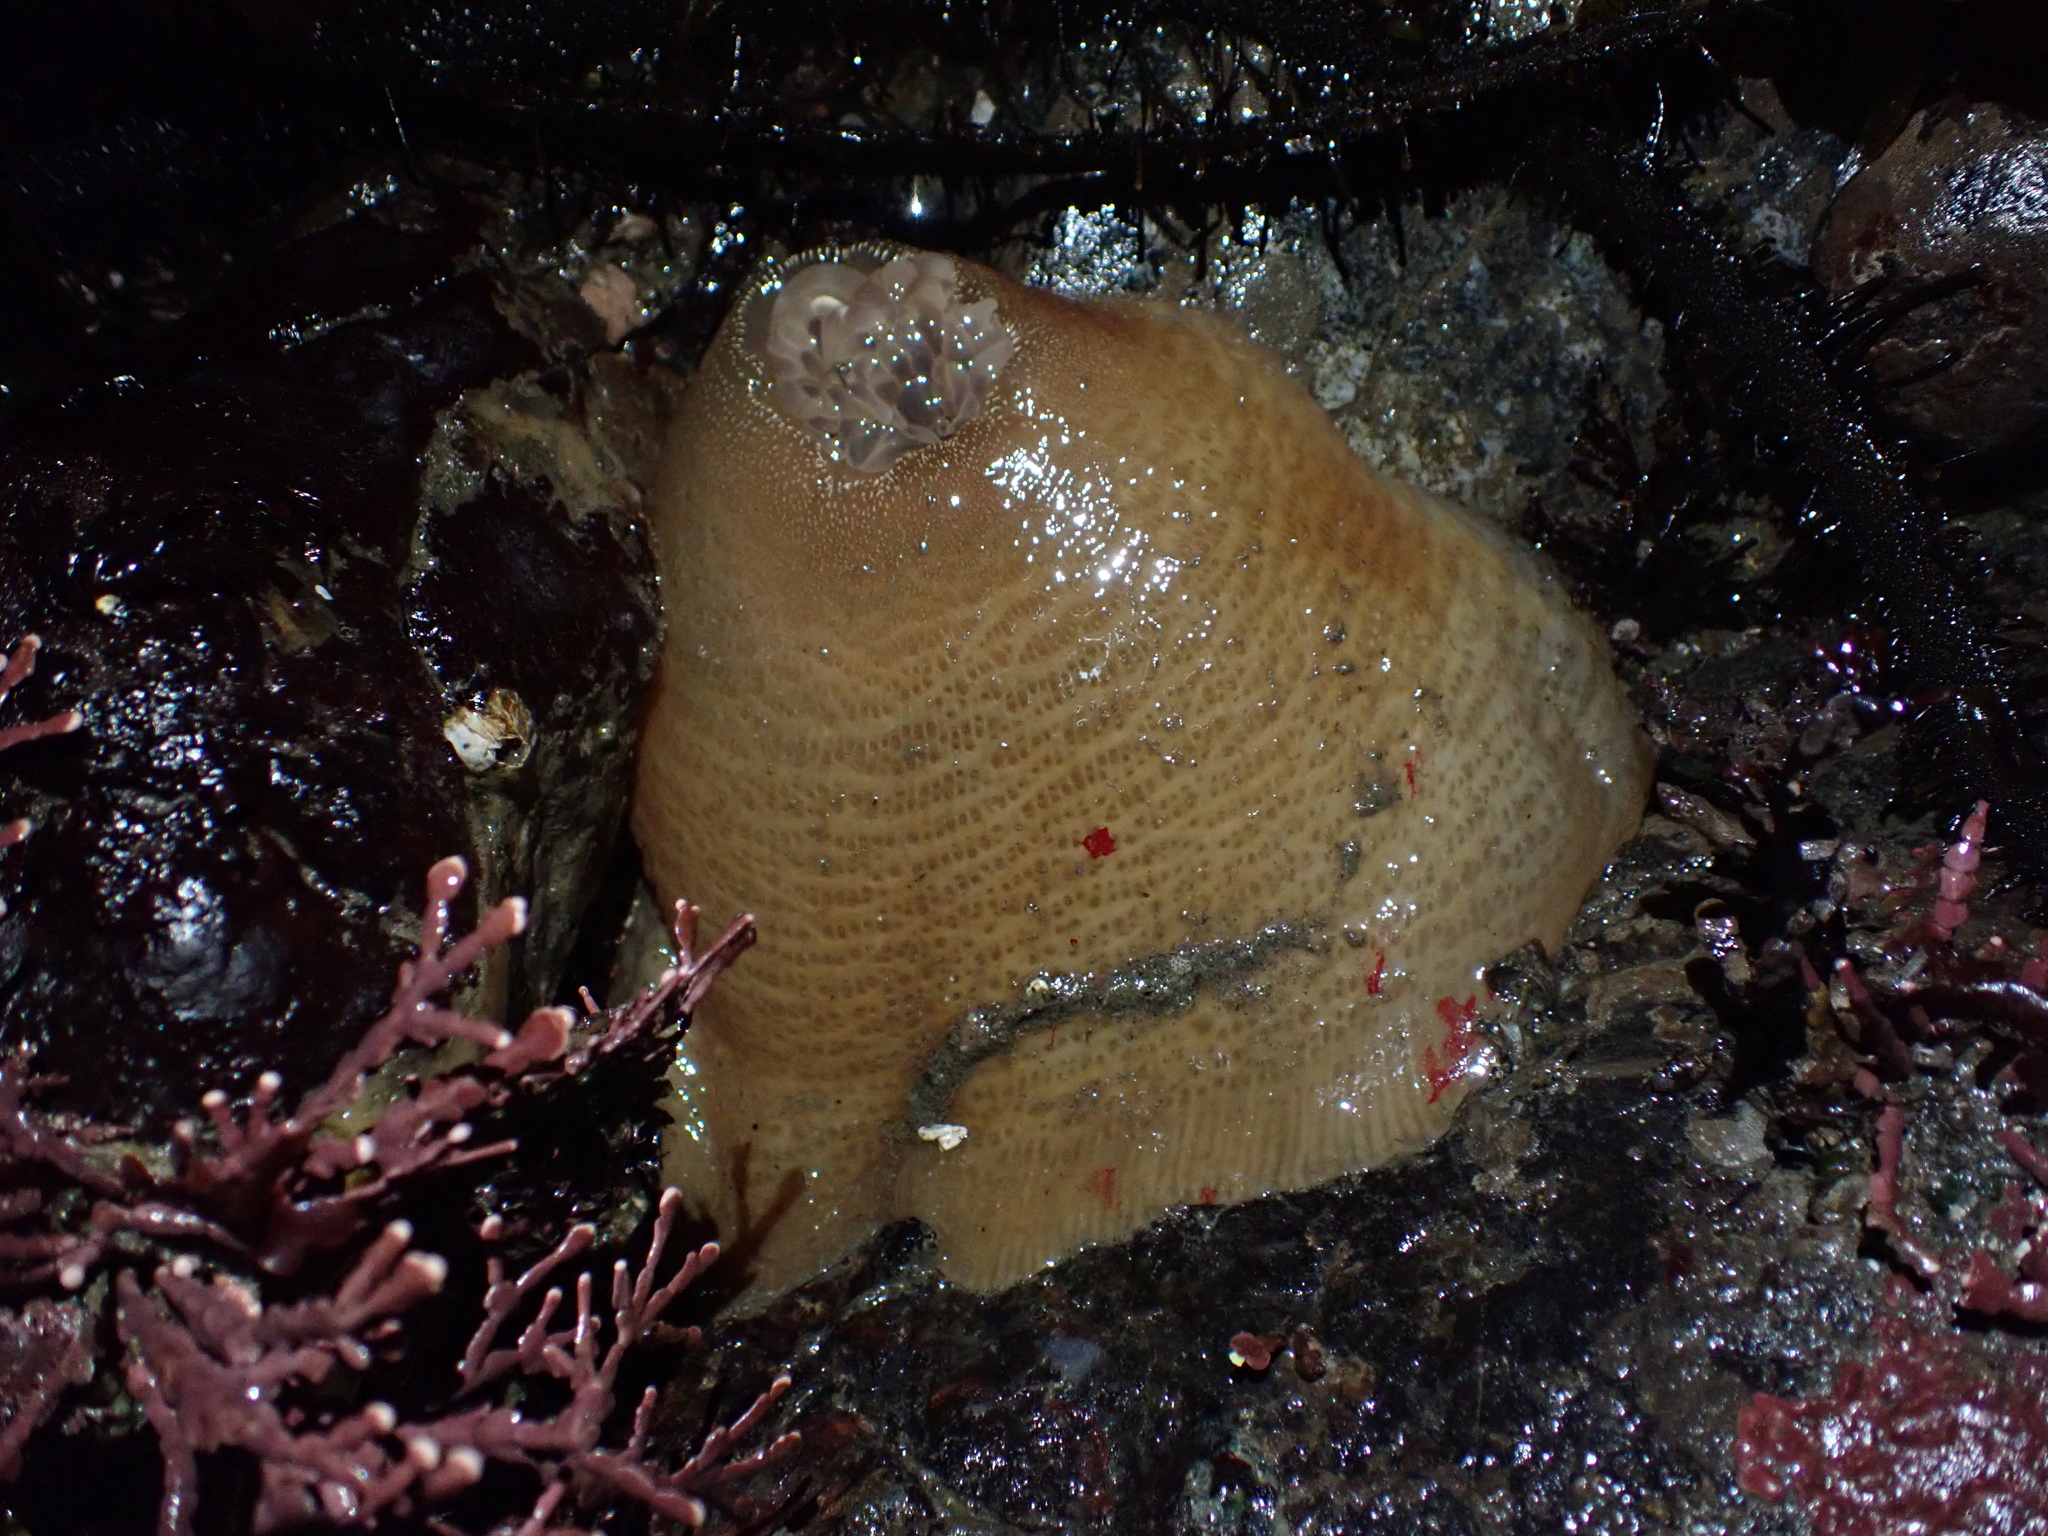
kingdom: Animalia
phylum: Cnidaria
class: Anthozoa
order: Actiniaria
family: Actiniidae
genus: Urticina
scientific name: Urticina grebelnyi
